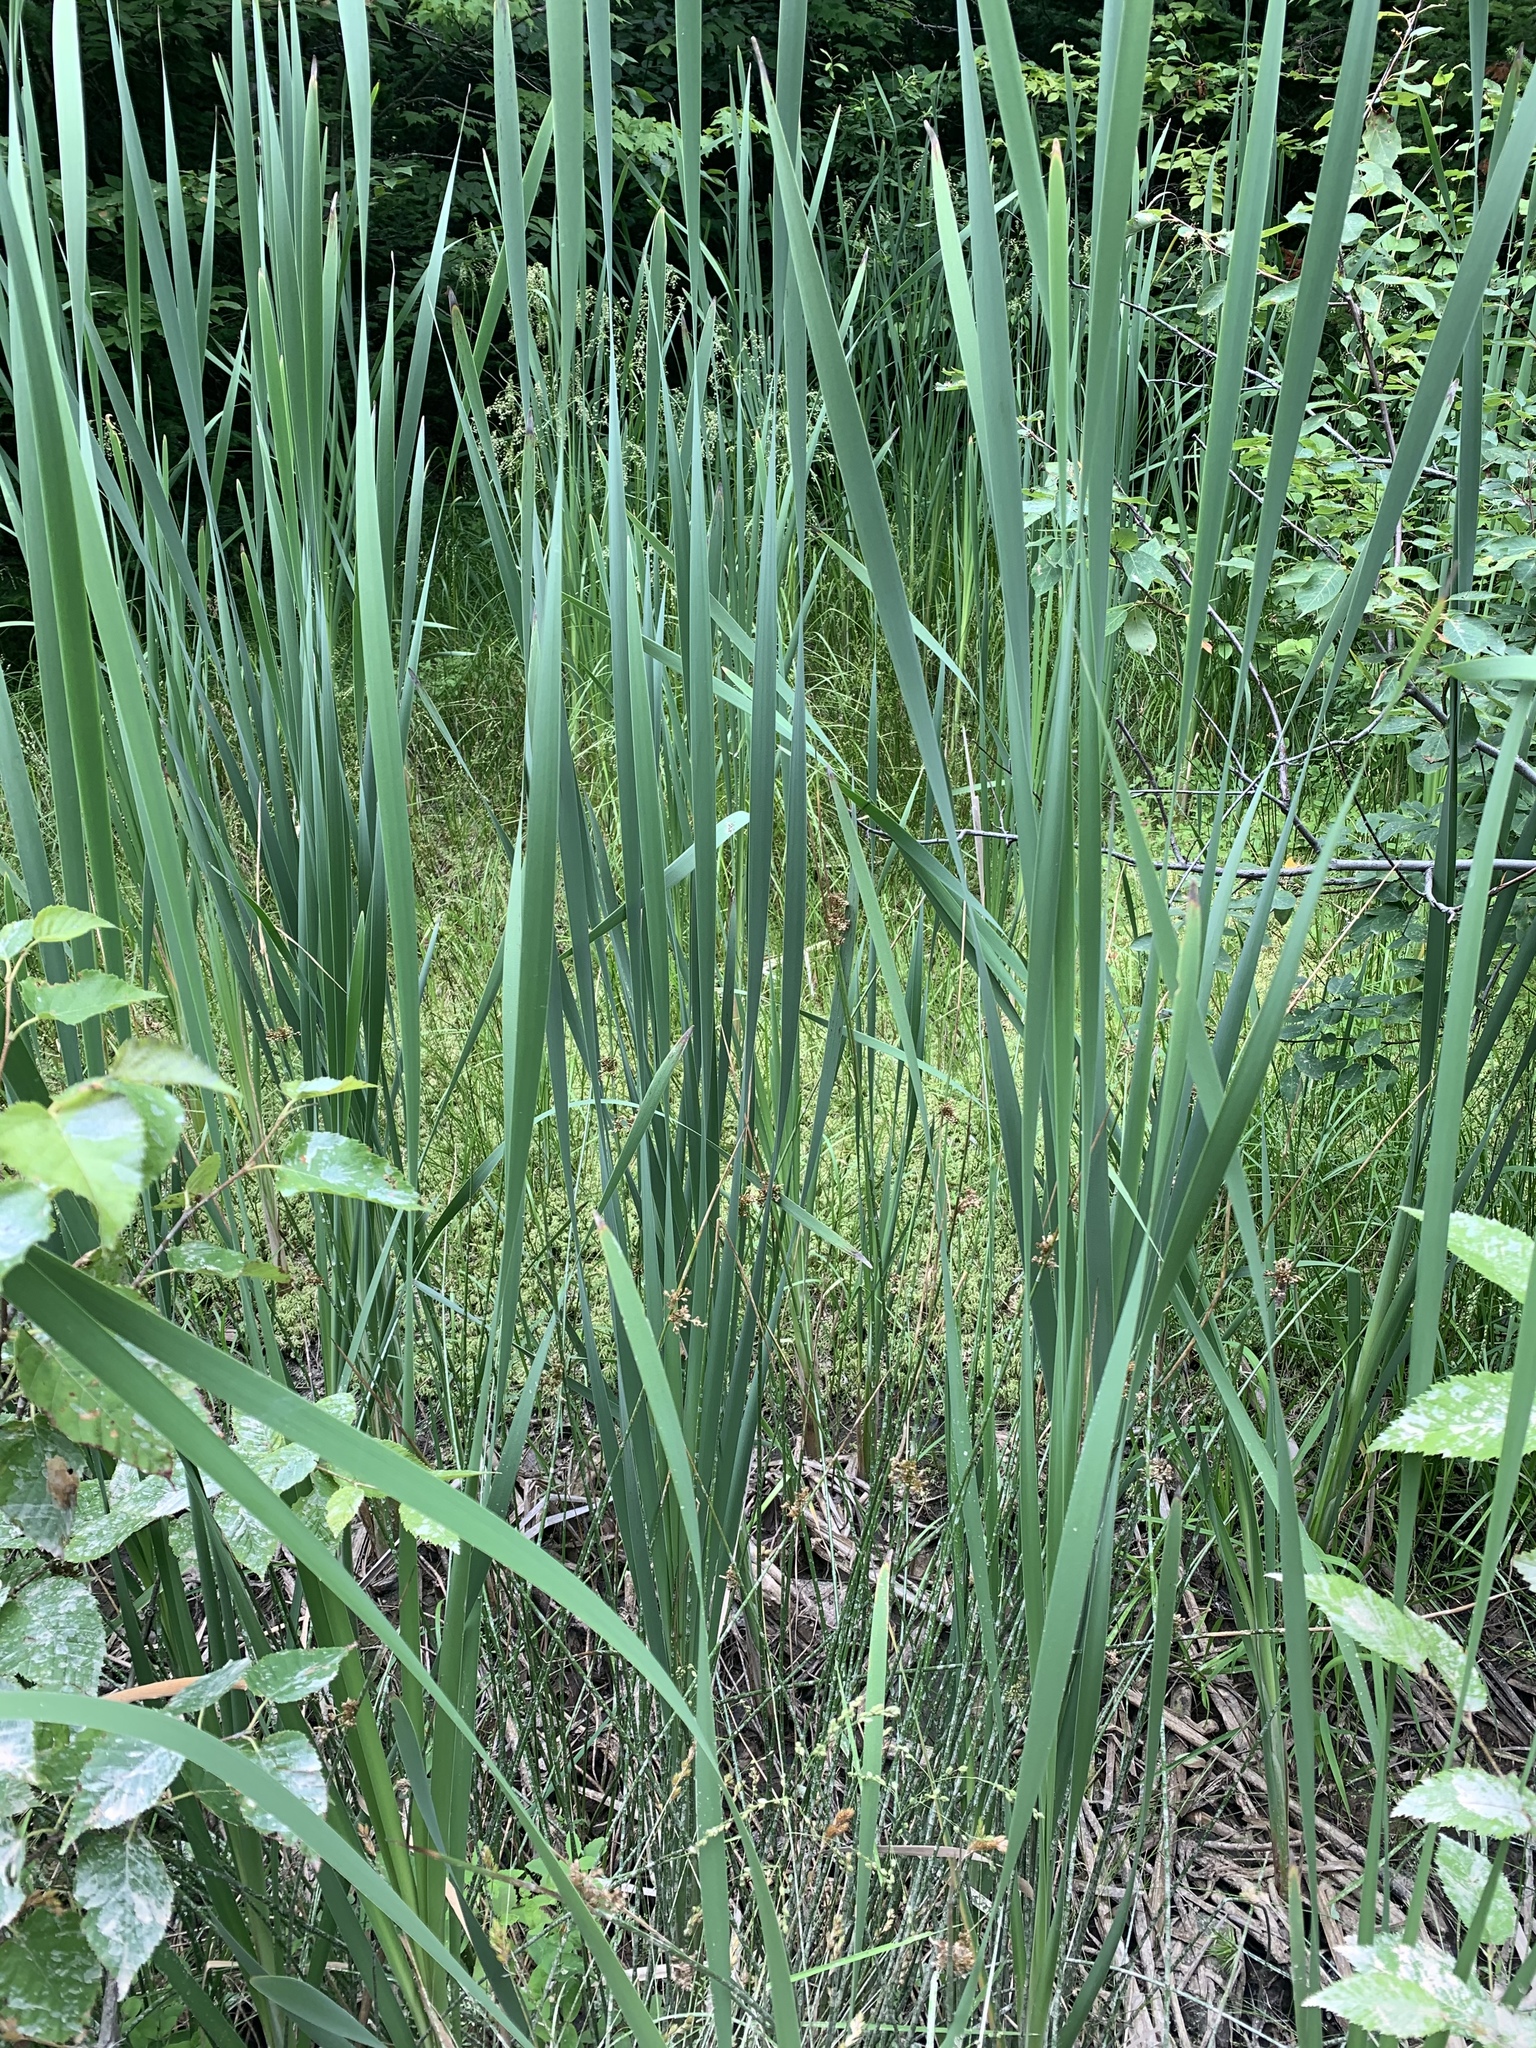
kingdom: Plantae
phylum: Tracheophyta
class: Liliopsida
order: Poales
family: Typhaceae
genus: Typha
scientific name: Typha latifolia
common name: Broadleaf cattail
